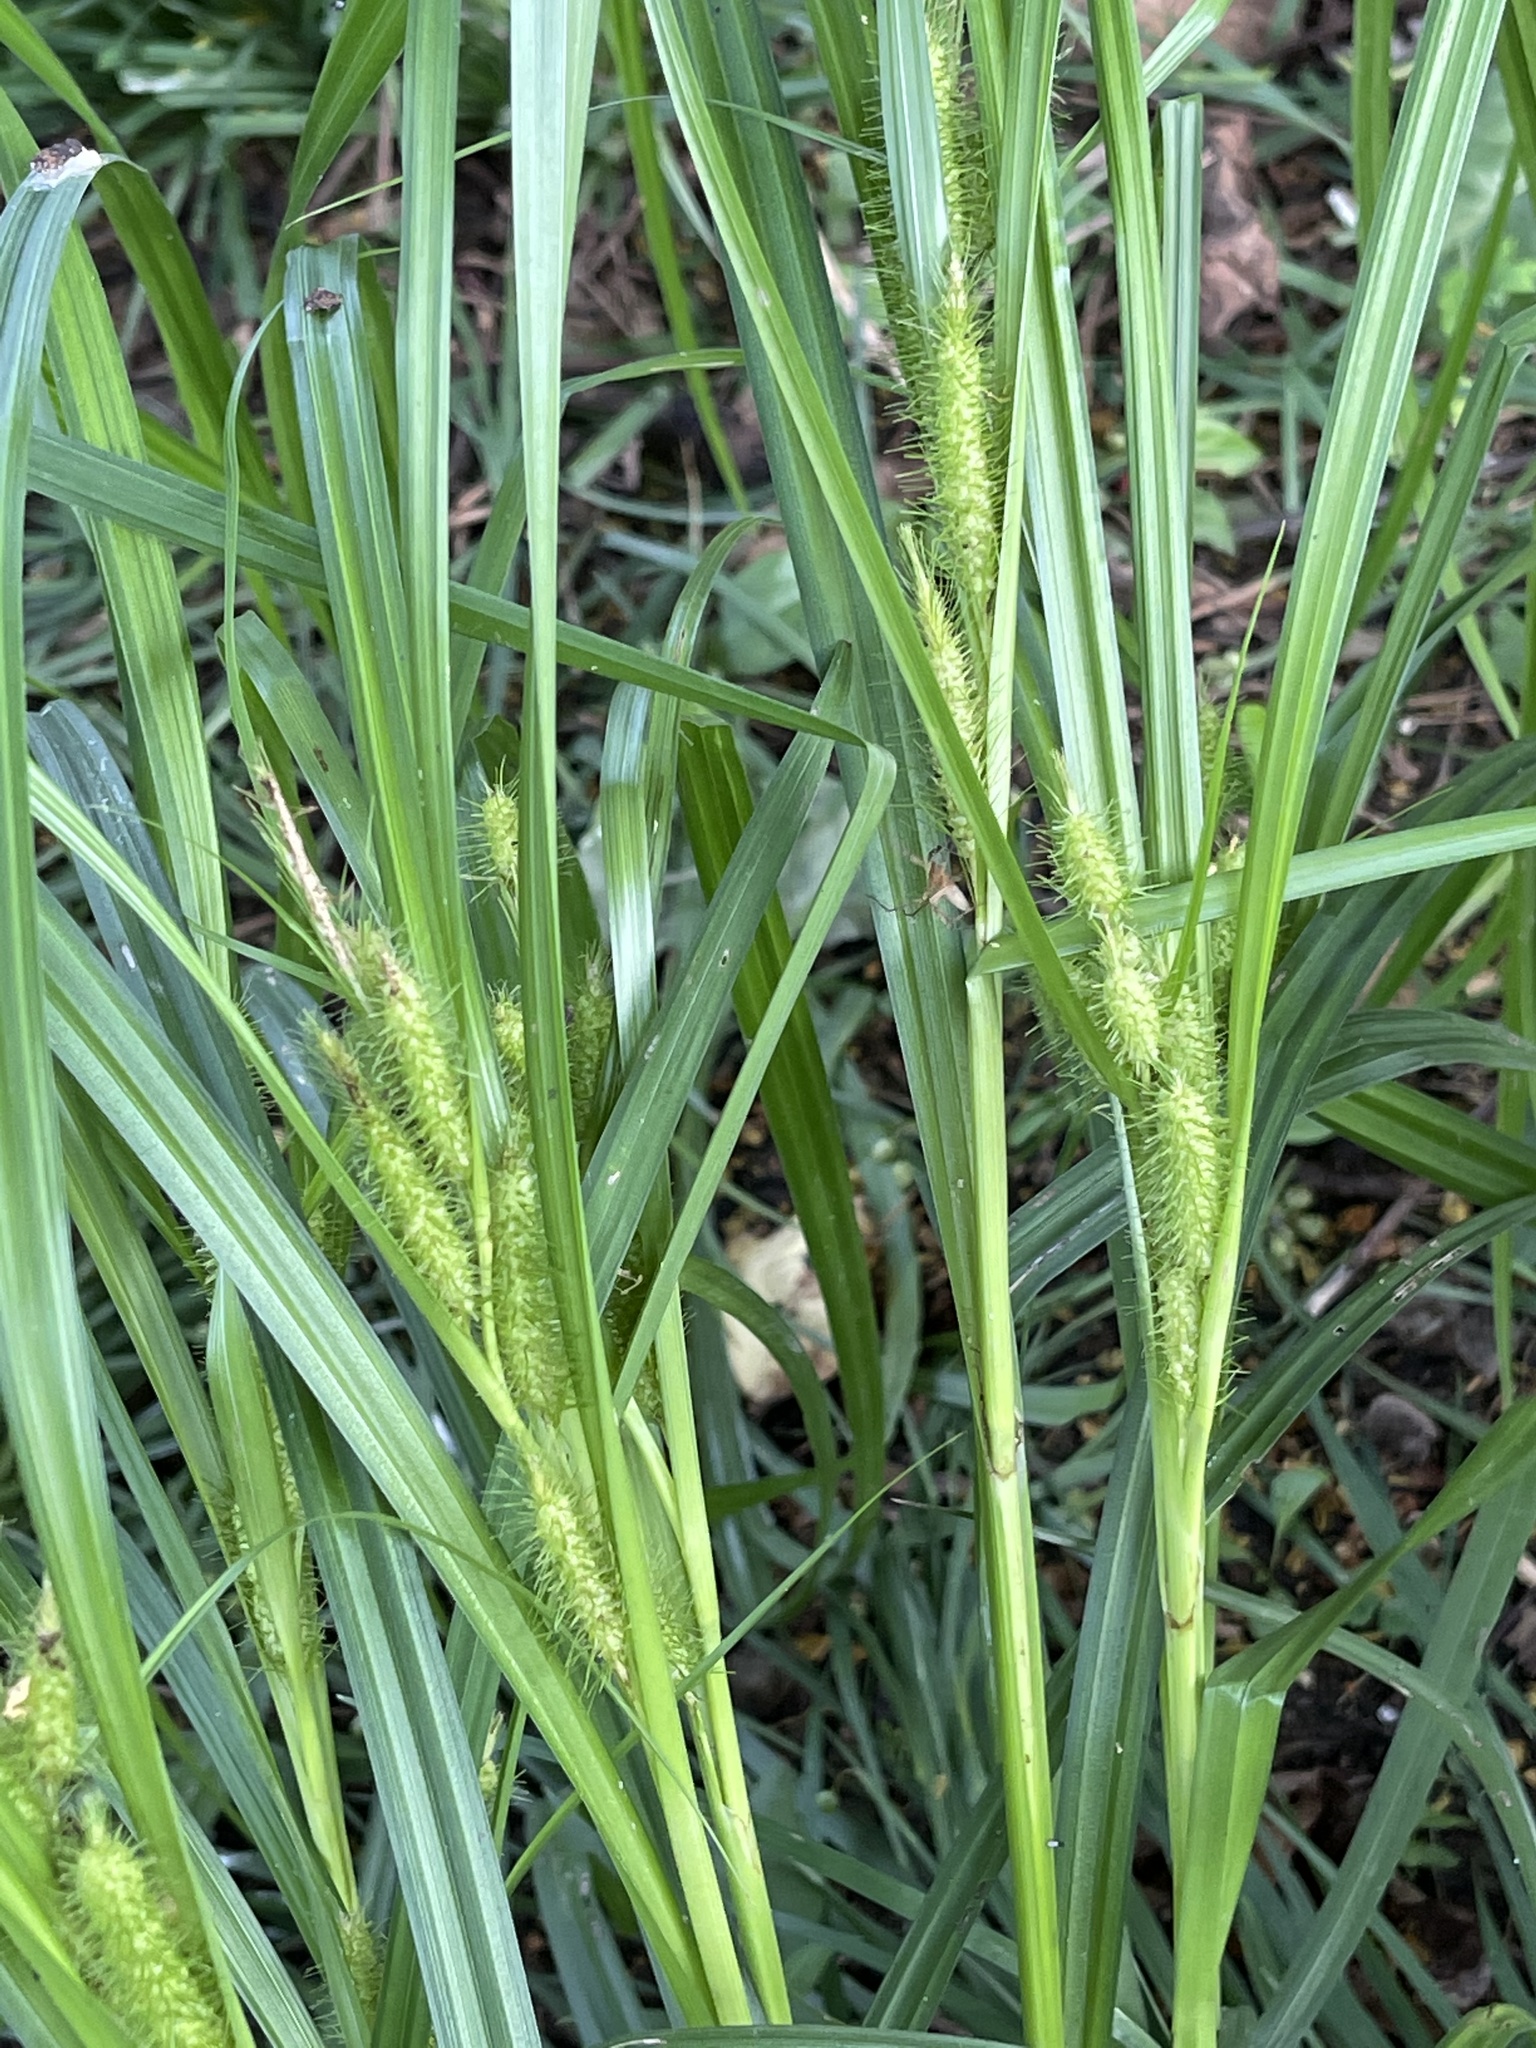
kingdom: Plantae
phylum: Tracheophyta
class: Liliopsida
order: Poales
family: Cyperaceae
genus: Carex
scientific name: Carex frankii
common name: Frank's sedge
